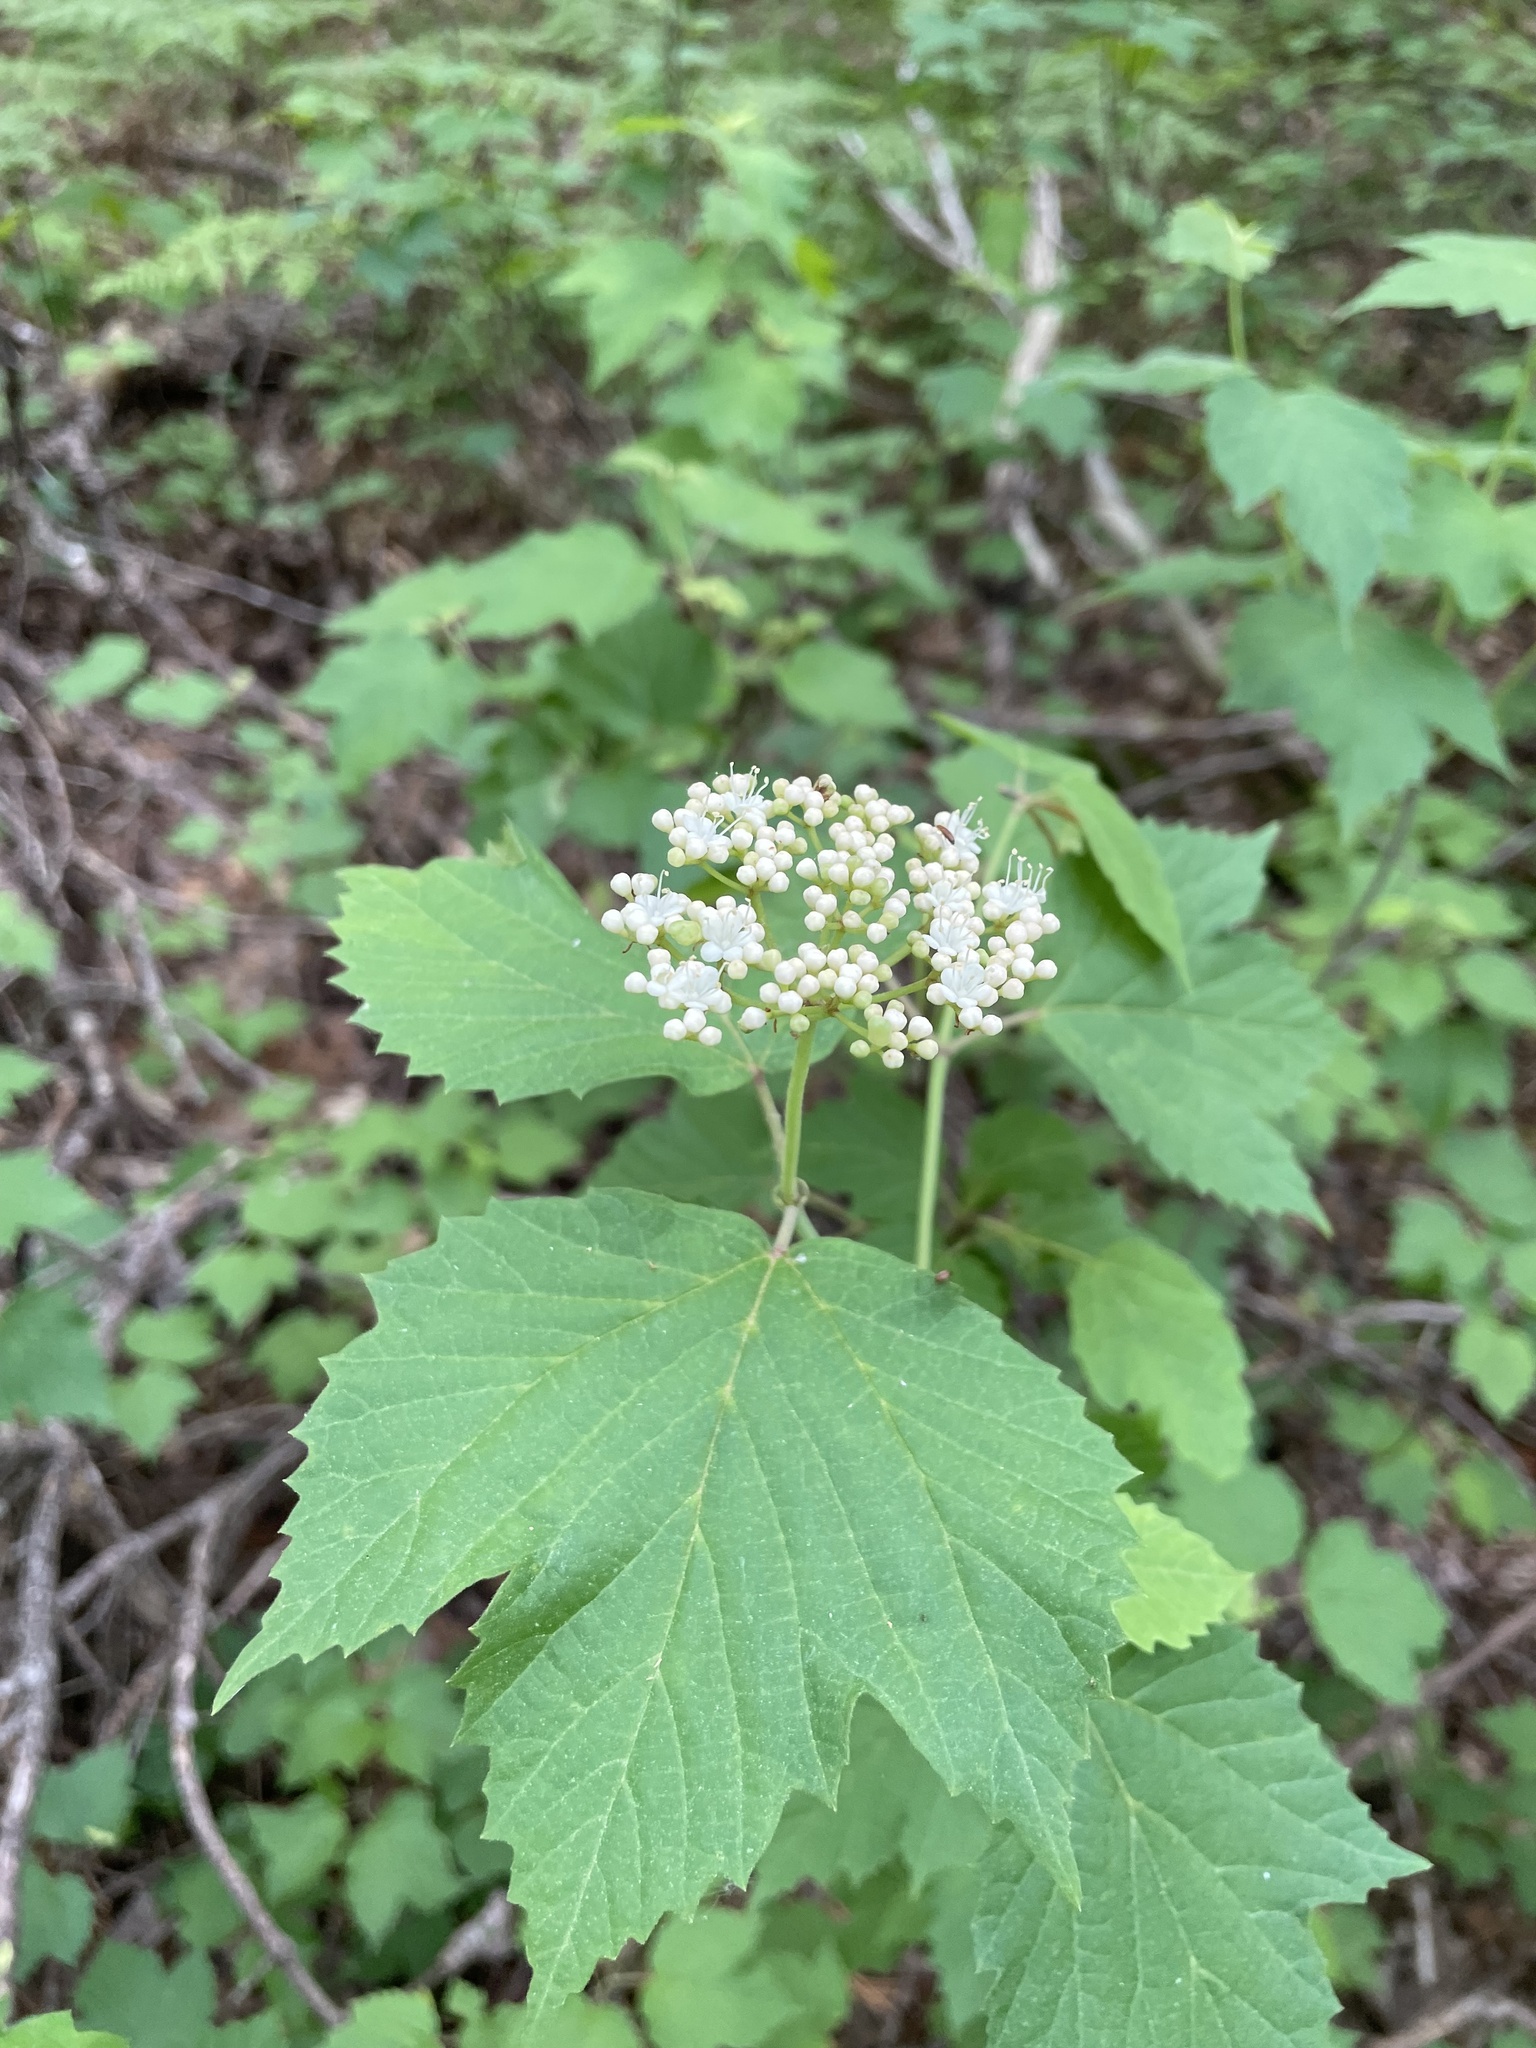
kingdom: Plantae
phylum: Tracheophyta
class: Magnoliopsida
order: Dipsacales
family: Viburnaceae
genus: Viburnum
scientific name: Viburnum acerifolium
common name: Dockmackie
